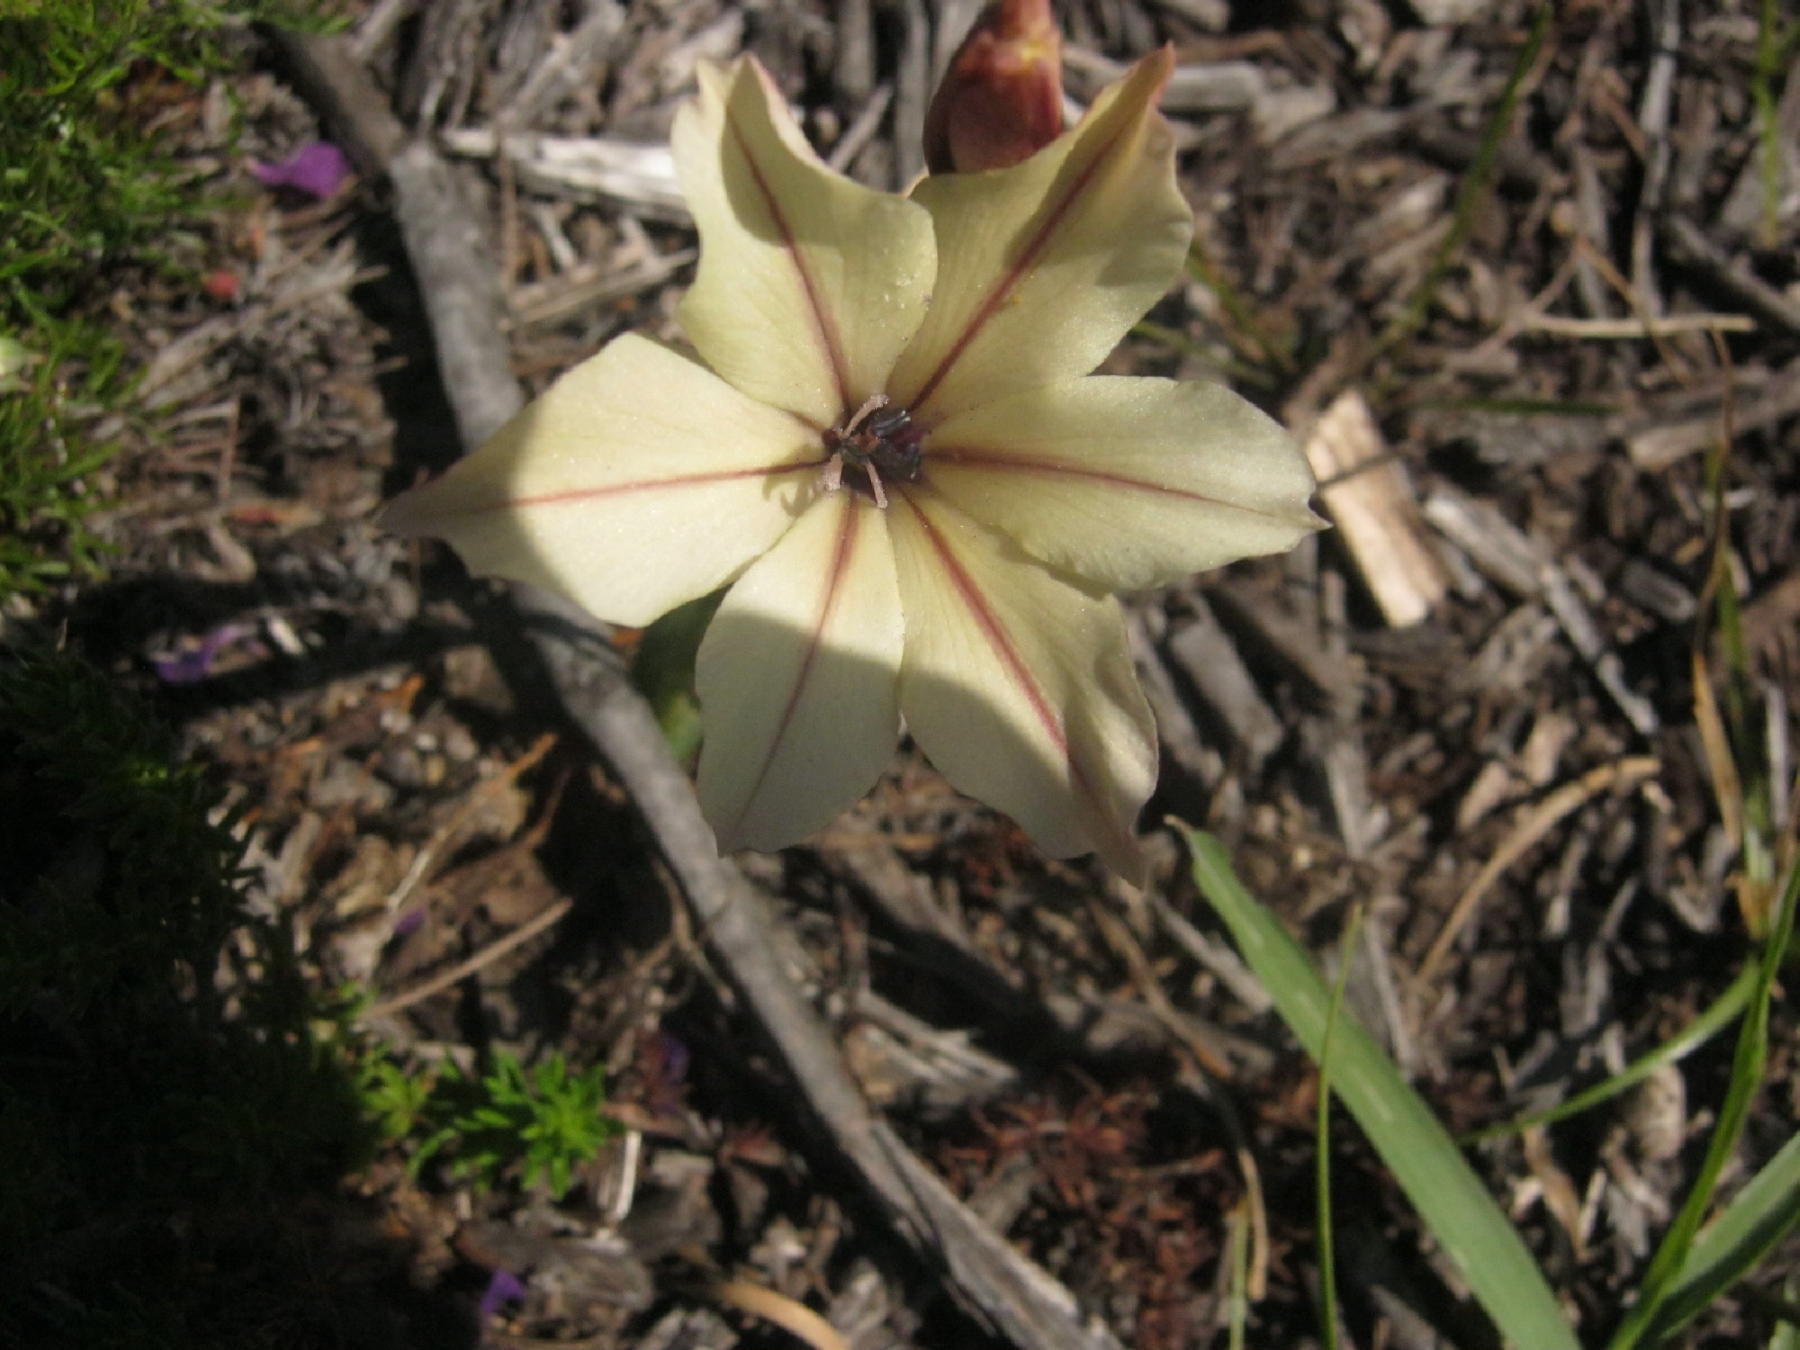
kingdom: Plantae
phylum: Tracheophyta
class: Liliopsida
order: Asparagales
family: Iridaceae
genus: Gladiolus
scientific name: Gladiolus floribundus
